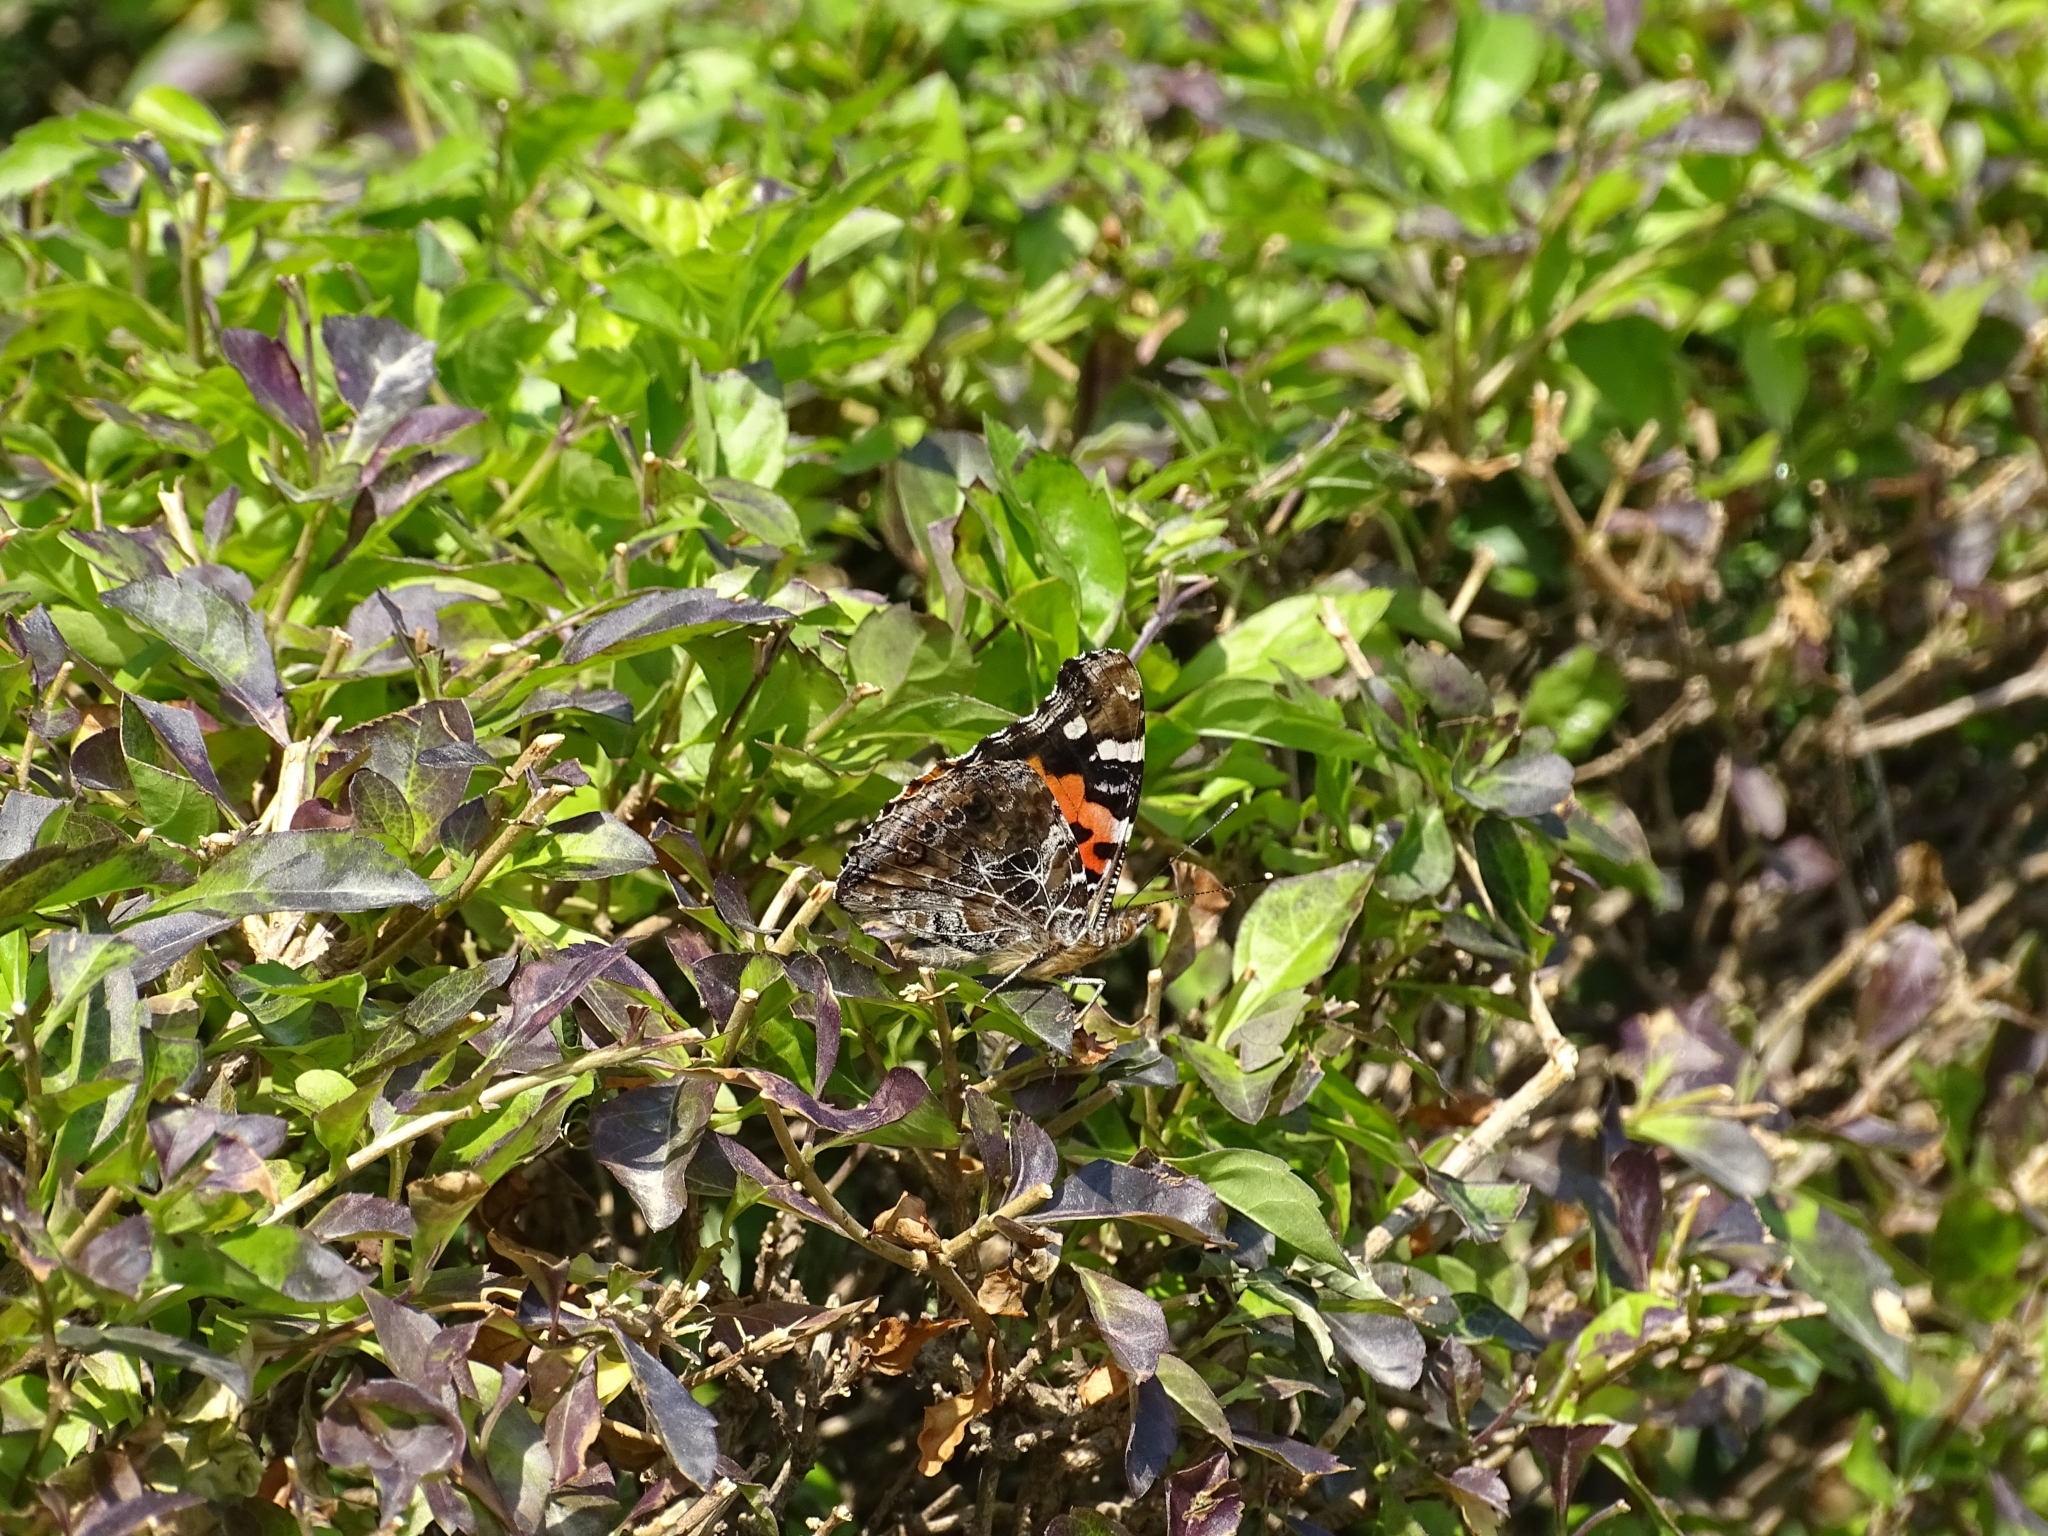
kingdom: Animalia
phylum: Arthropoda
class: Insecta
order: Lepidoptera
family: Nymphalidae
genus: Vanessa
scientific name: Vanessa indica
